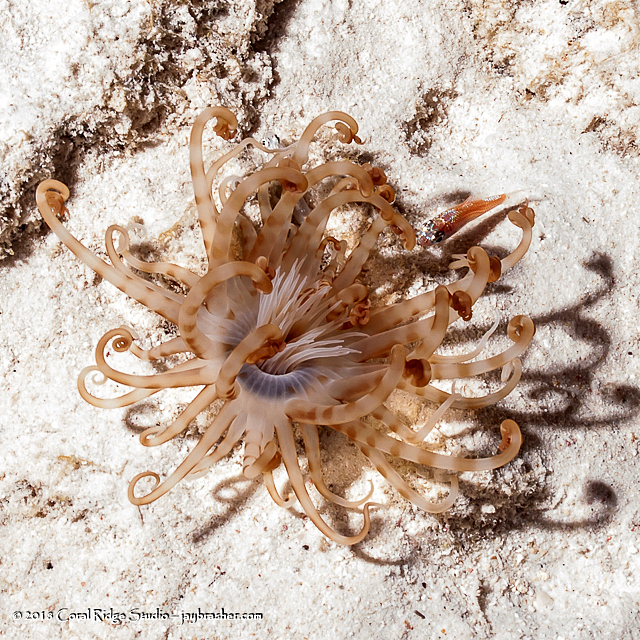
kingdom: Animalia
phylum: Cnidaria
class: Anthozoa
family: Arachnactidae
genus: Isarachnanthus
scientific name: Isarachnanthus nocturnus
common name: Banded tube-dwelling anemone
